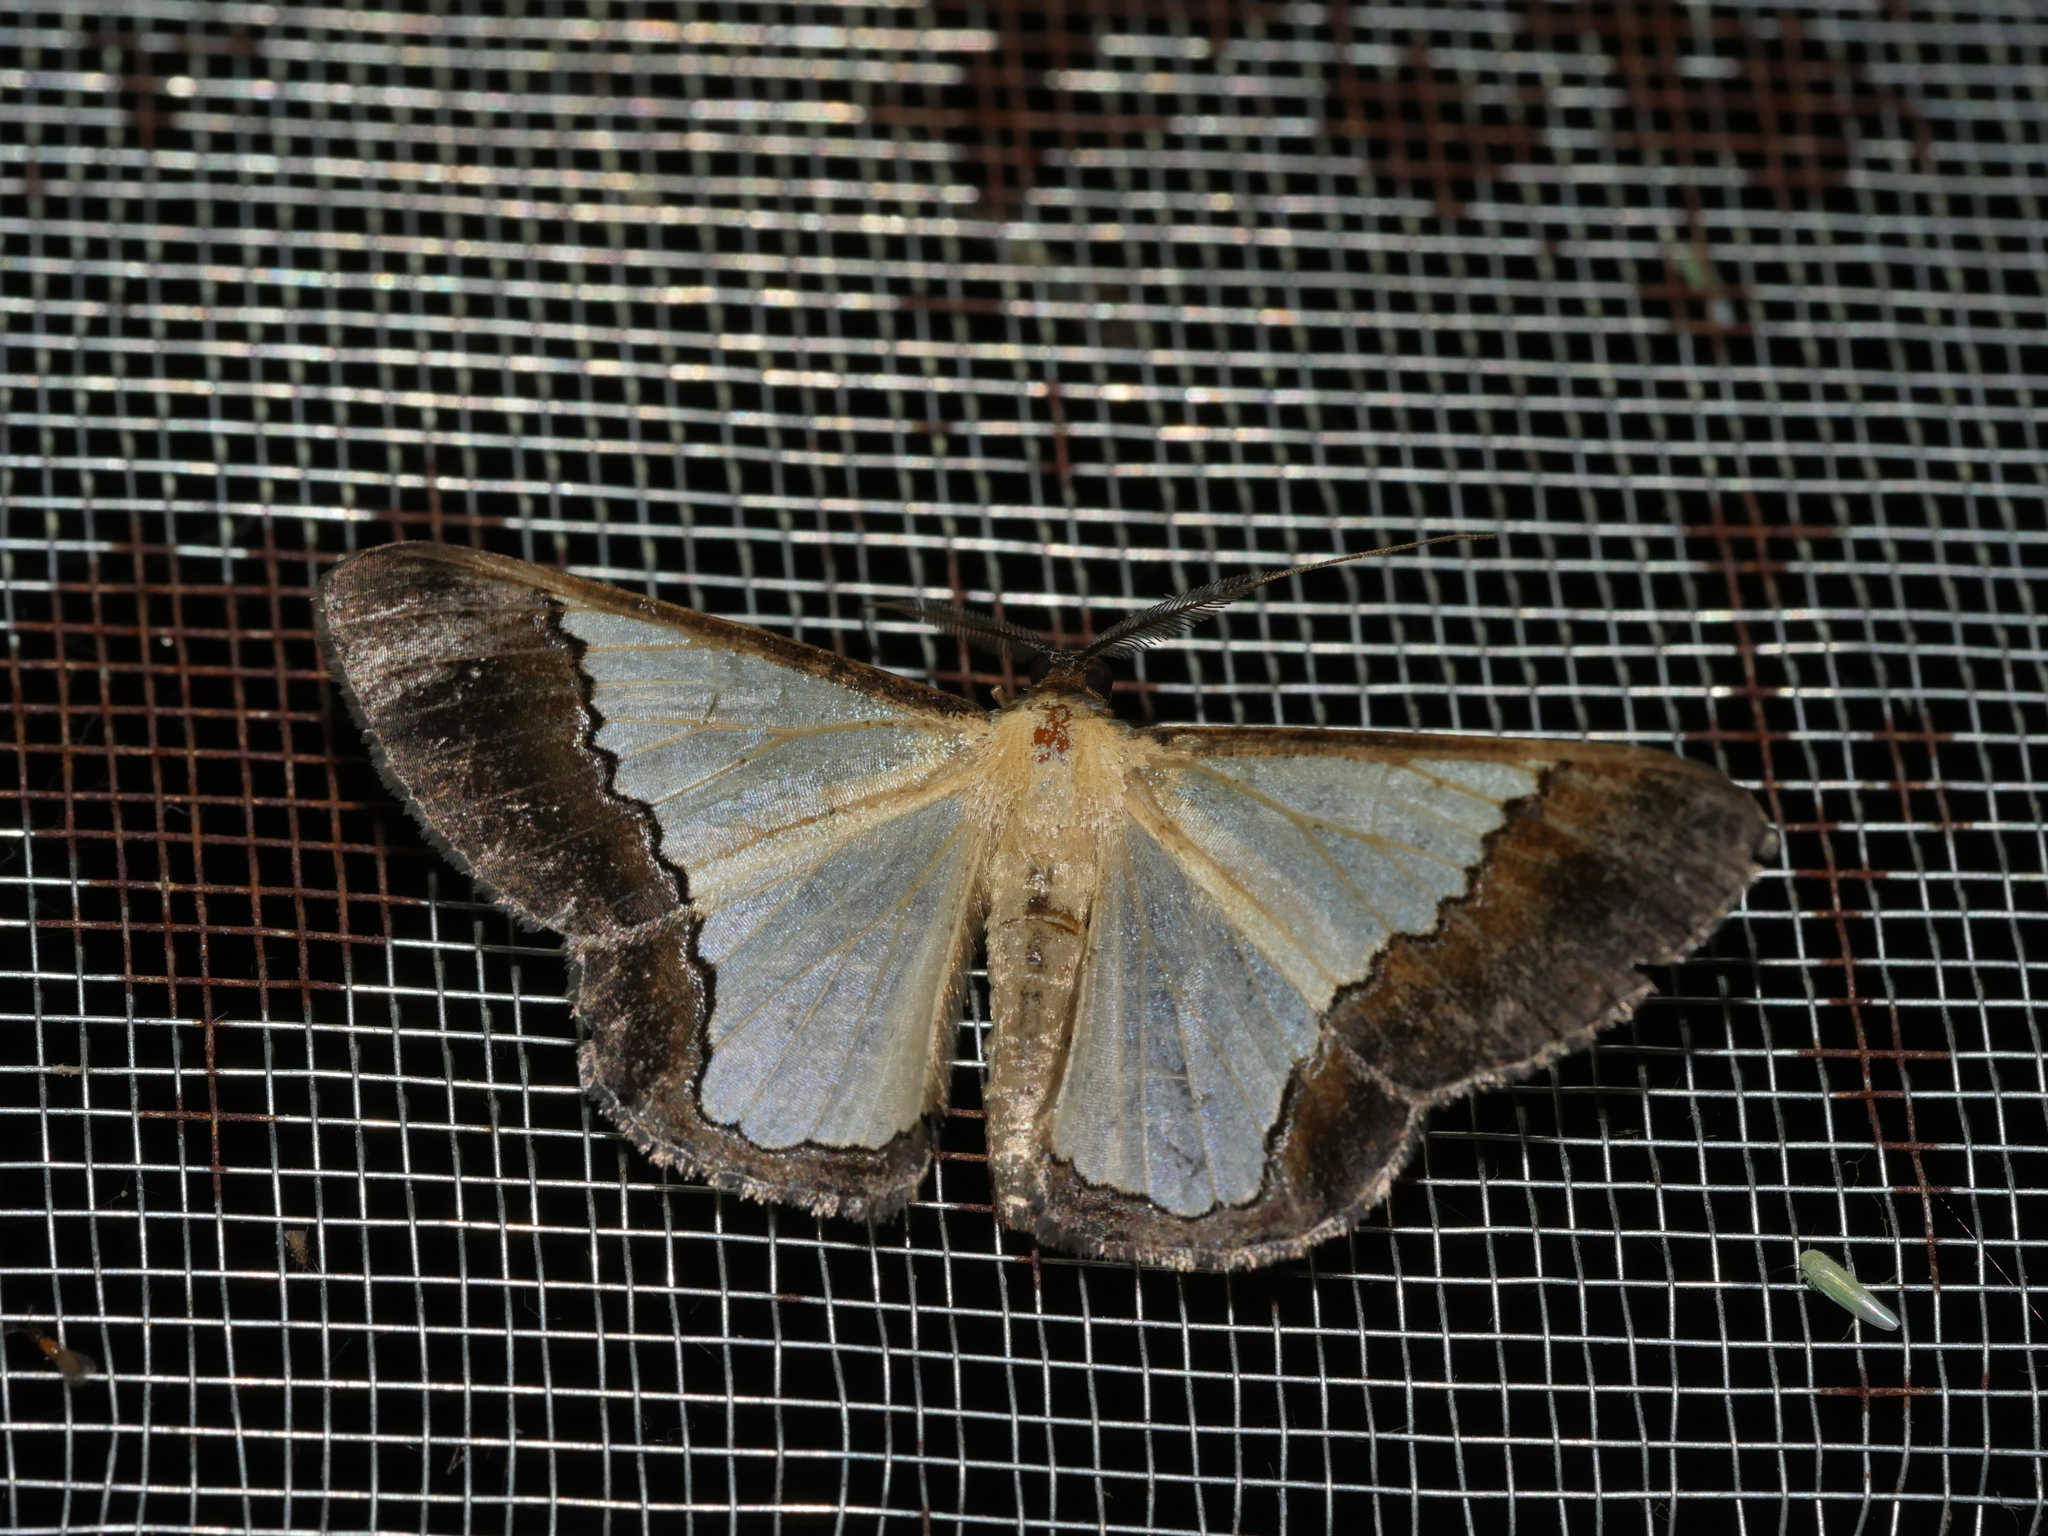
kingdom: Animalia
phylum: Arthropoda
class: Insecta
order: Lepidoptera
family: Geometridae
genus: Zamarada
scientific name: Zamarada undimarginata
